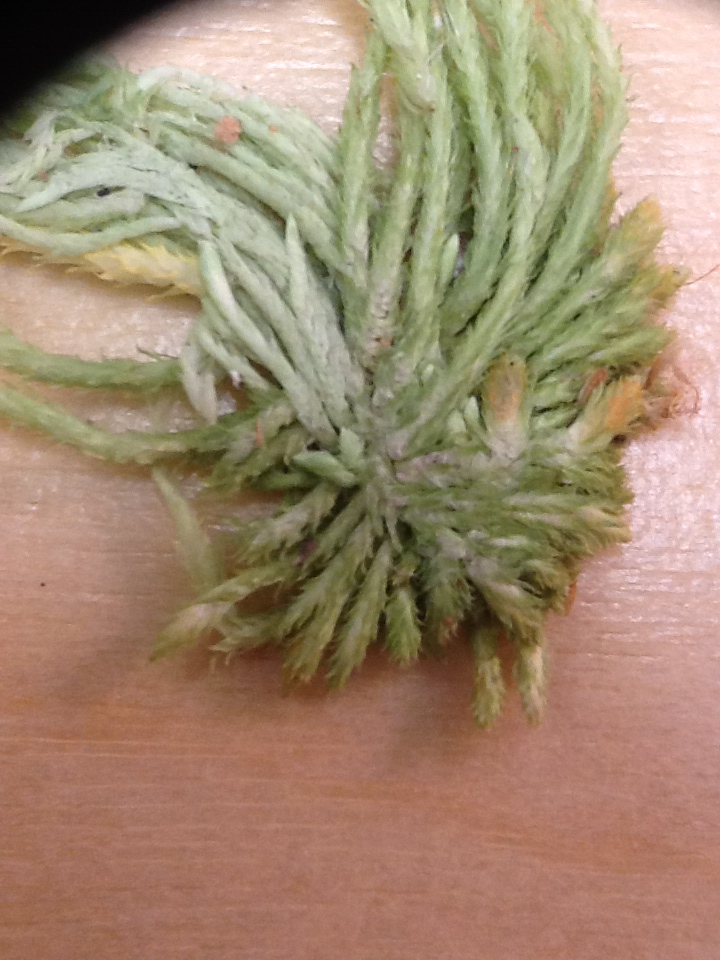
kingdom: Plantae
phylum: Bryophyta
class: Sphagnopsida
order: Sphagnales
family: Sphagnaceae
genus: Sphagnum
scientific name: Sphagnum fallax
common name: Flat-top peat moss
